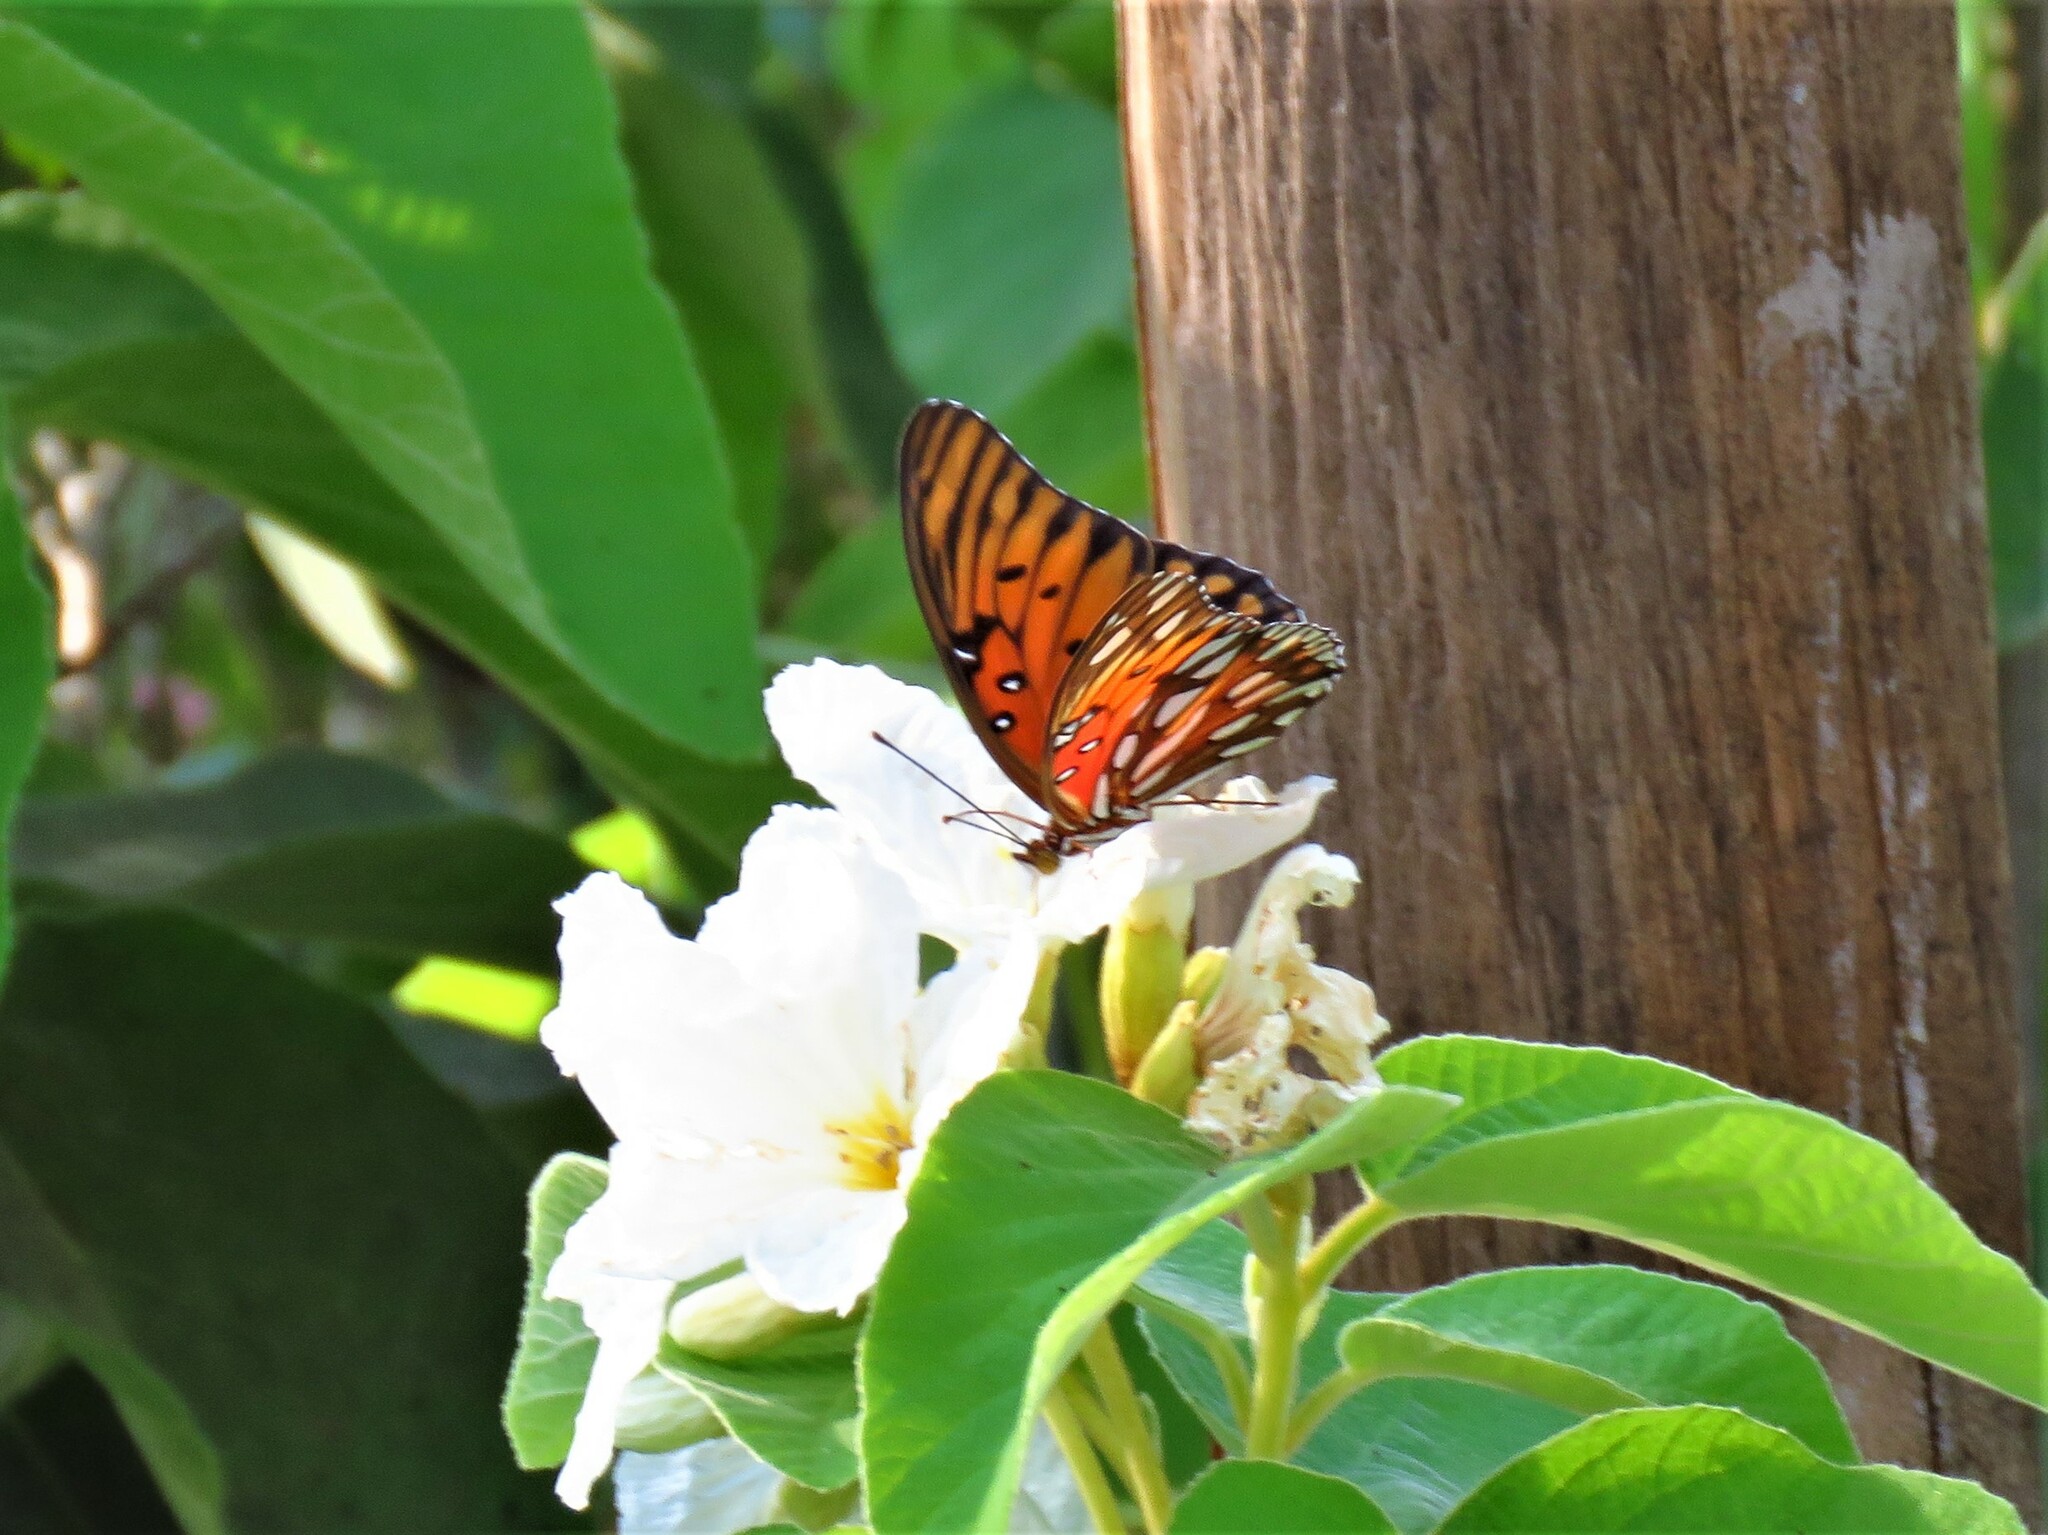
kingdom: Animalia
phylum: Arthropoda
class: Insecta
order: Lepidoptera
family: Nymphalidae
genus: Dione
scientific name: Dione vanillae
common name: Gulf fritillary
